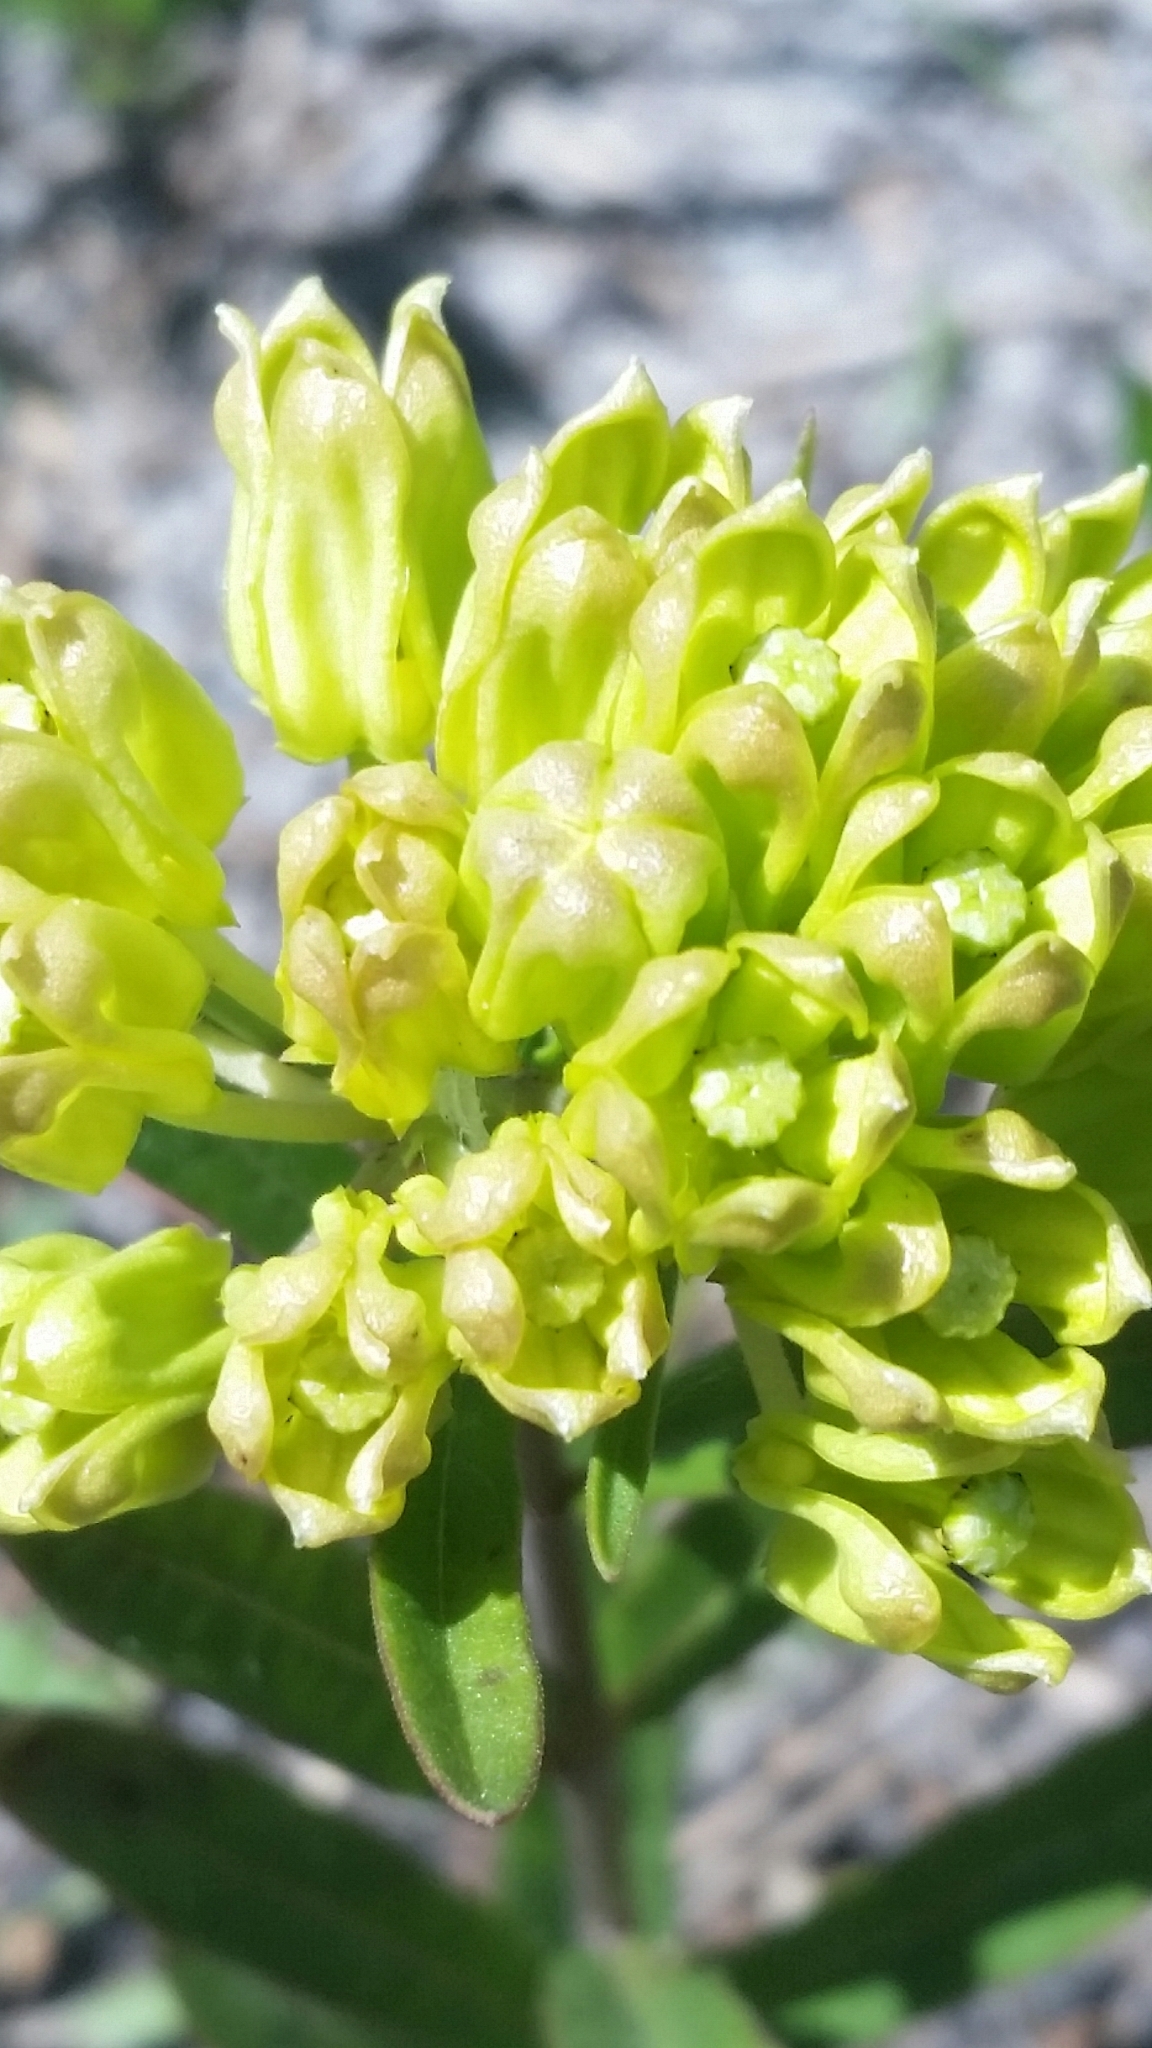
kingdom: Plantae
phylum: Tracheophyta
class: Magnoliopsida
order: Gentianales
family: Apocynaceae
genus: Asclepias
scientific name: Asclepias pedicellata
